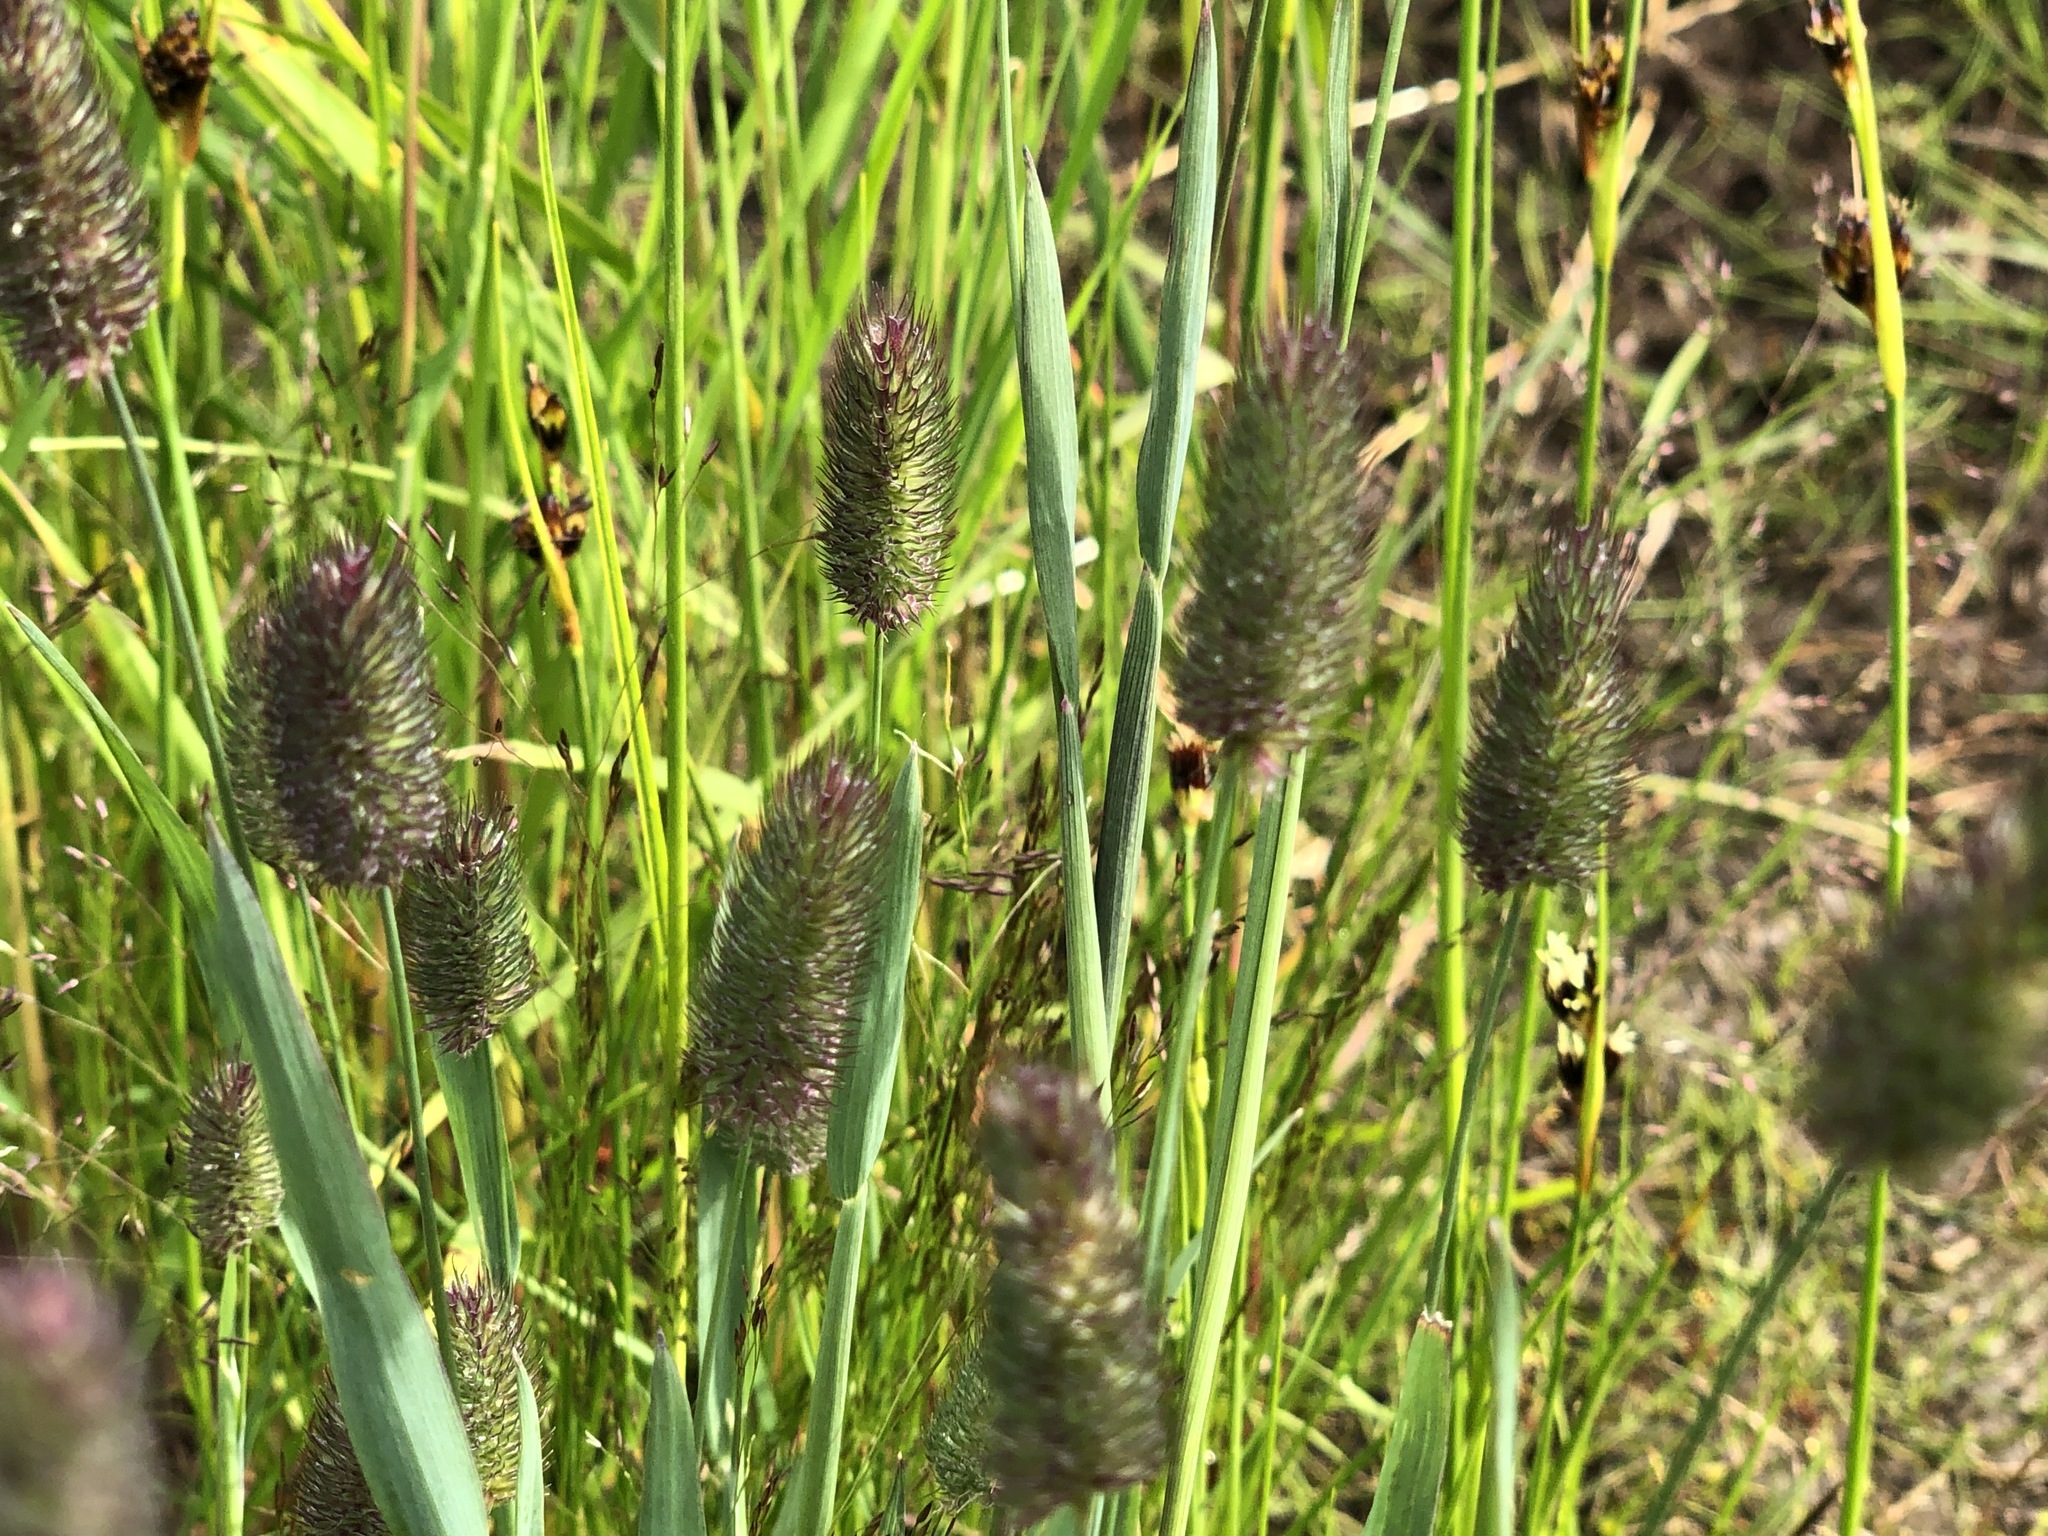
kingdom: Plantae
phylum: Tracheophyta
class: Liliopsida
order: Poales
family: Poaceae
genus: Phleum
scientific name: Phleum alpinum
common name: Alpine cat's-tail
